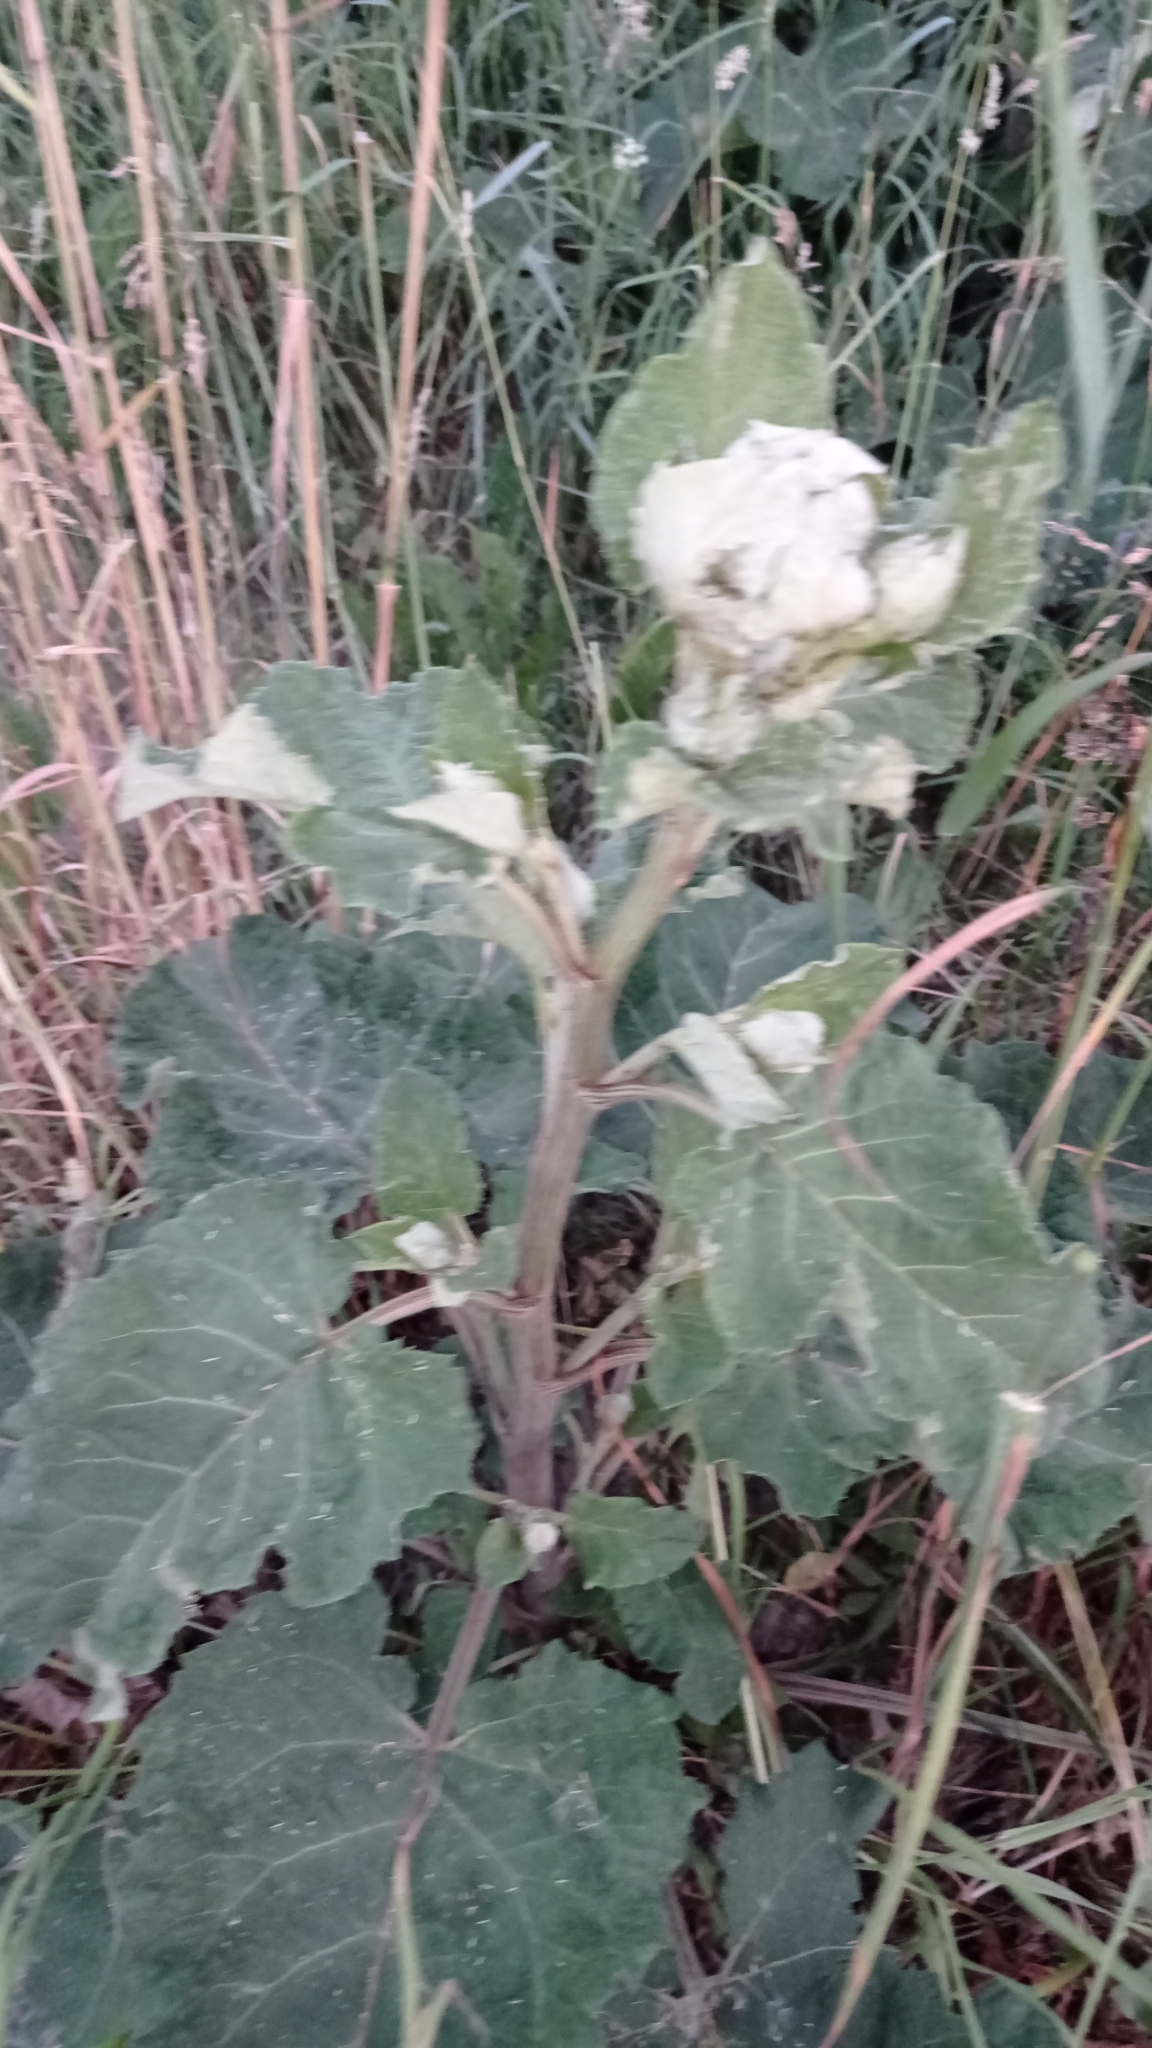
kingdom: Plantae
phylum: Tracheophyta
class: Magnoliopsida
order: Asterales
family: Asteraceae
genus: Arctium
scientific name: Arctium tomentosum
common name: Woolly burdock
